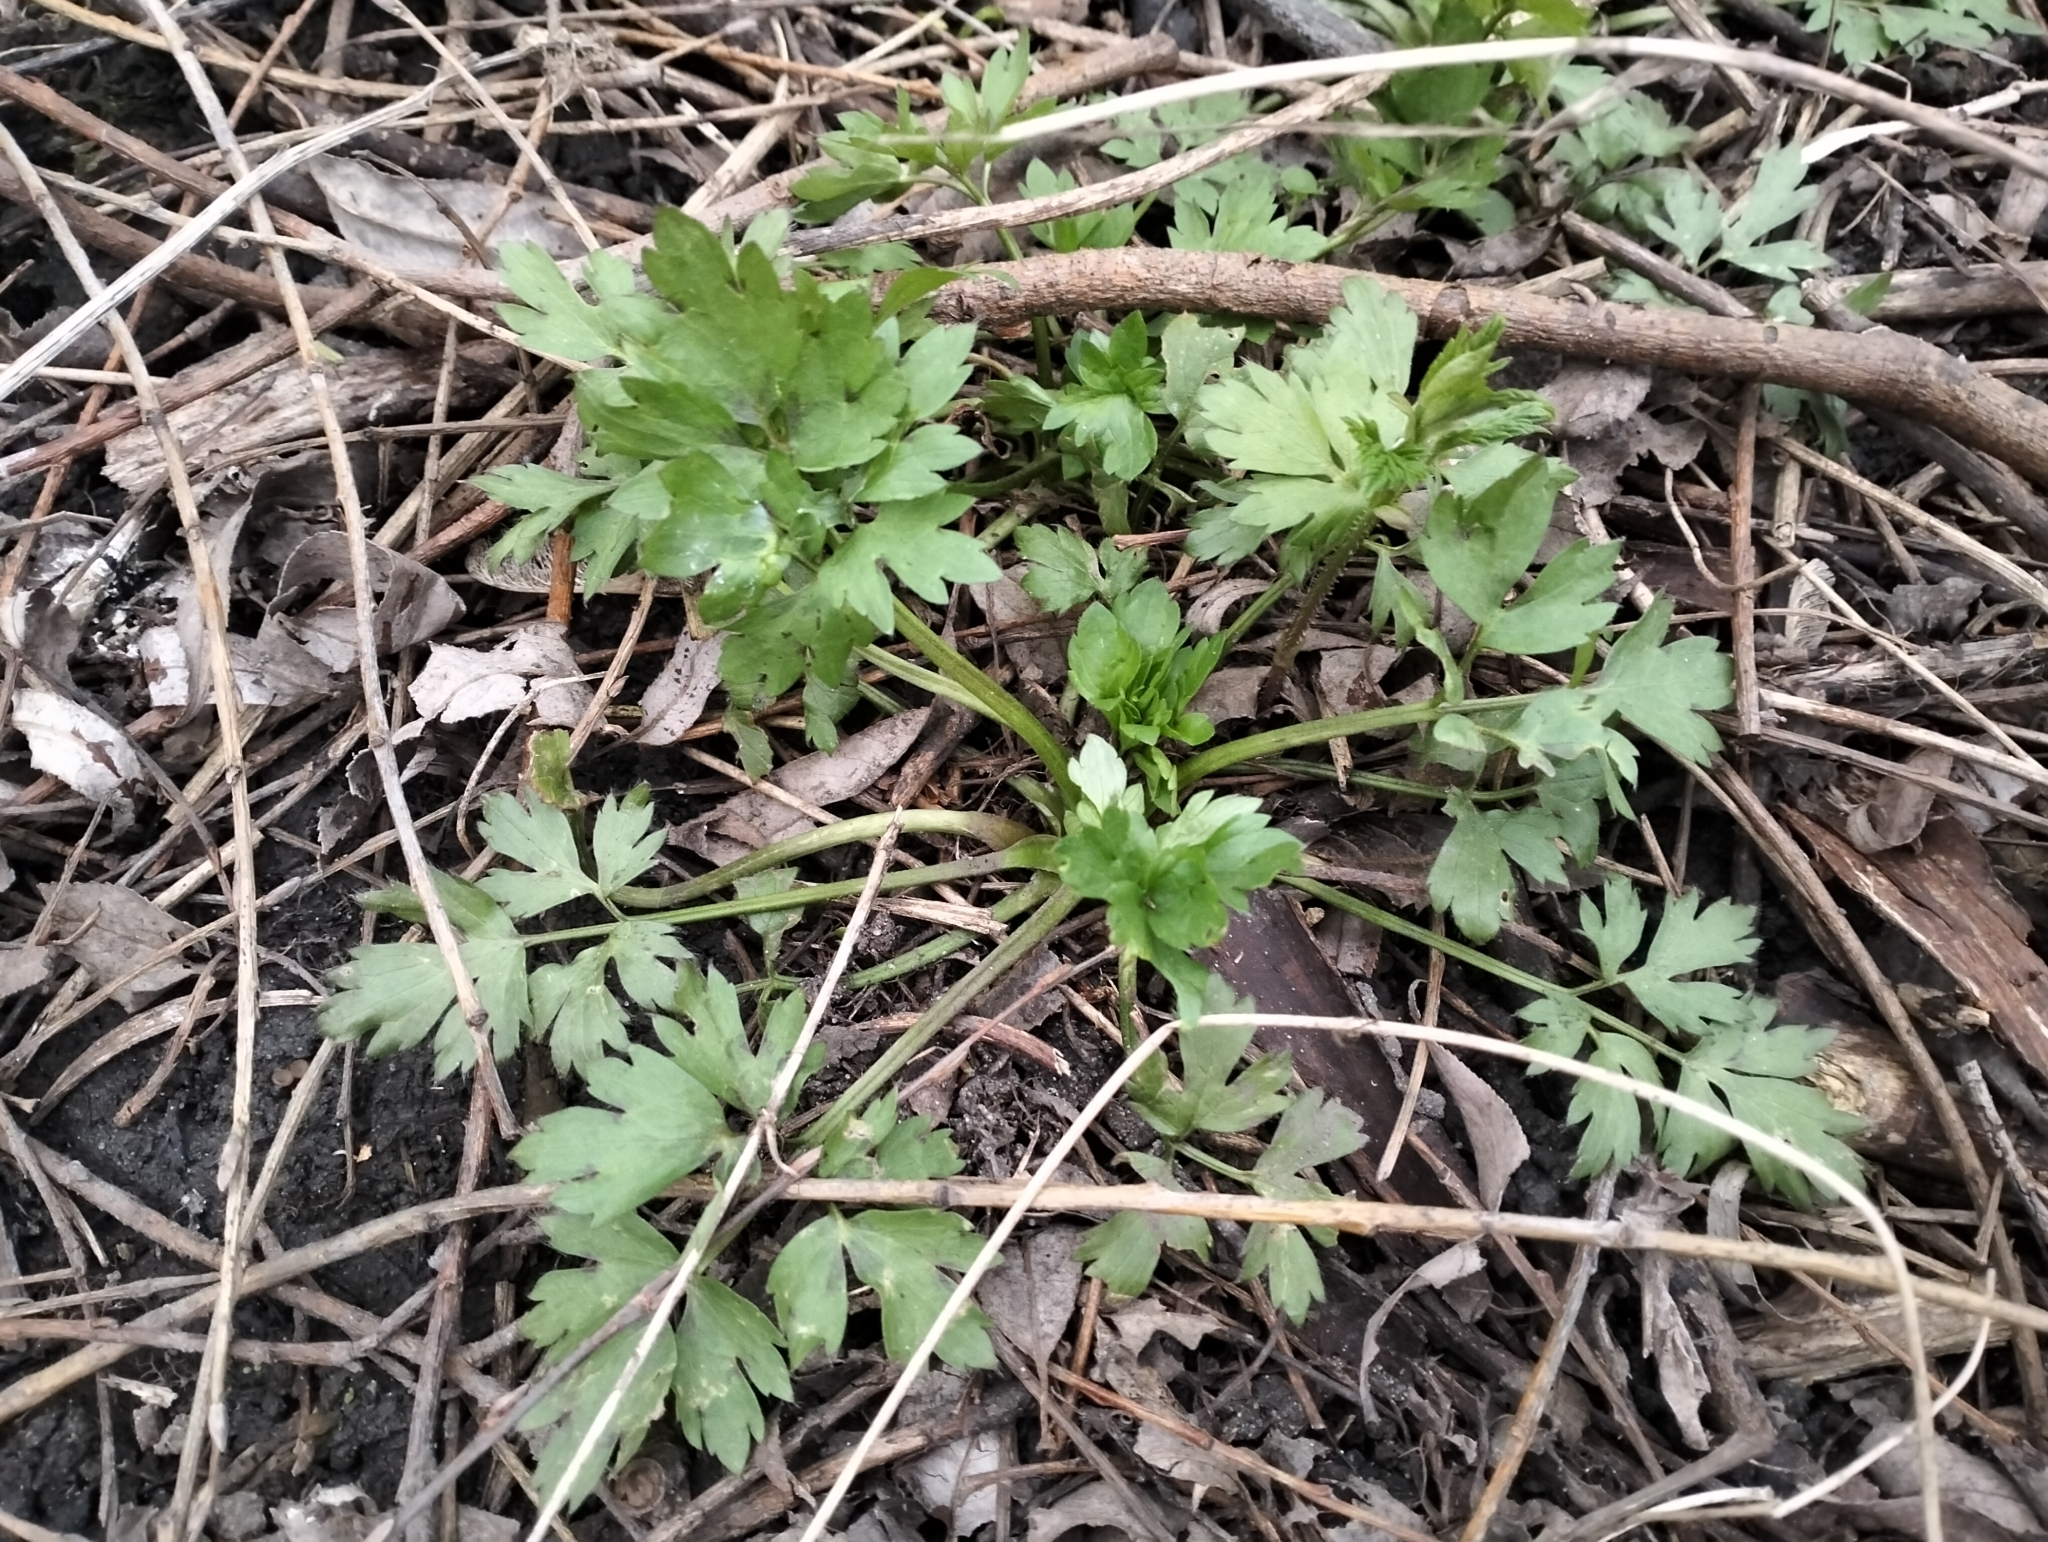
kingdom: Plantae
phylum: Tracheophyta
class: Magnoliopsida
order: Ranunculales
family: Ranunculaceae
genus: Ranunculus
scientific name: Ranunculus repens
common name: Creeping buttercup
